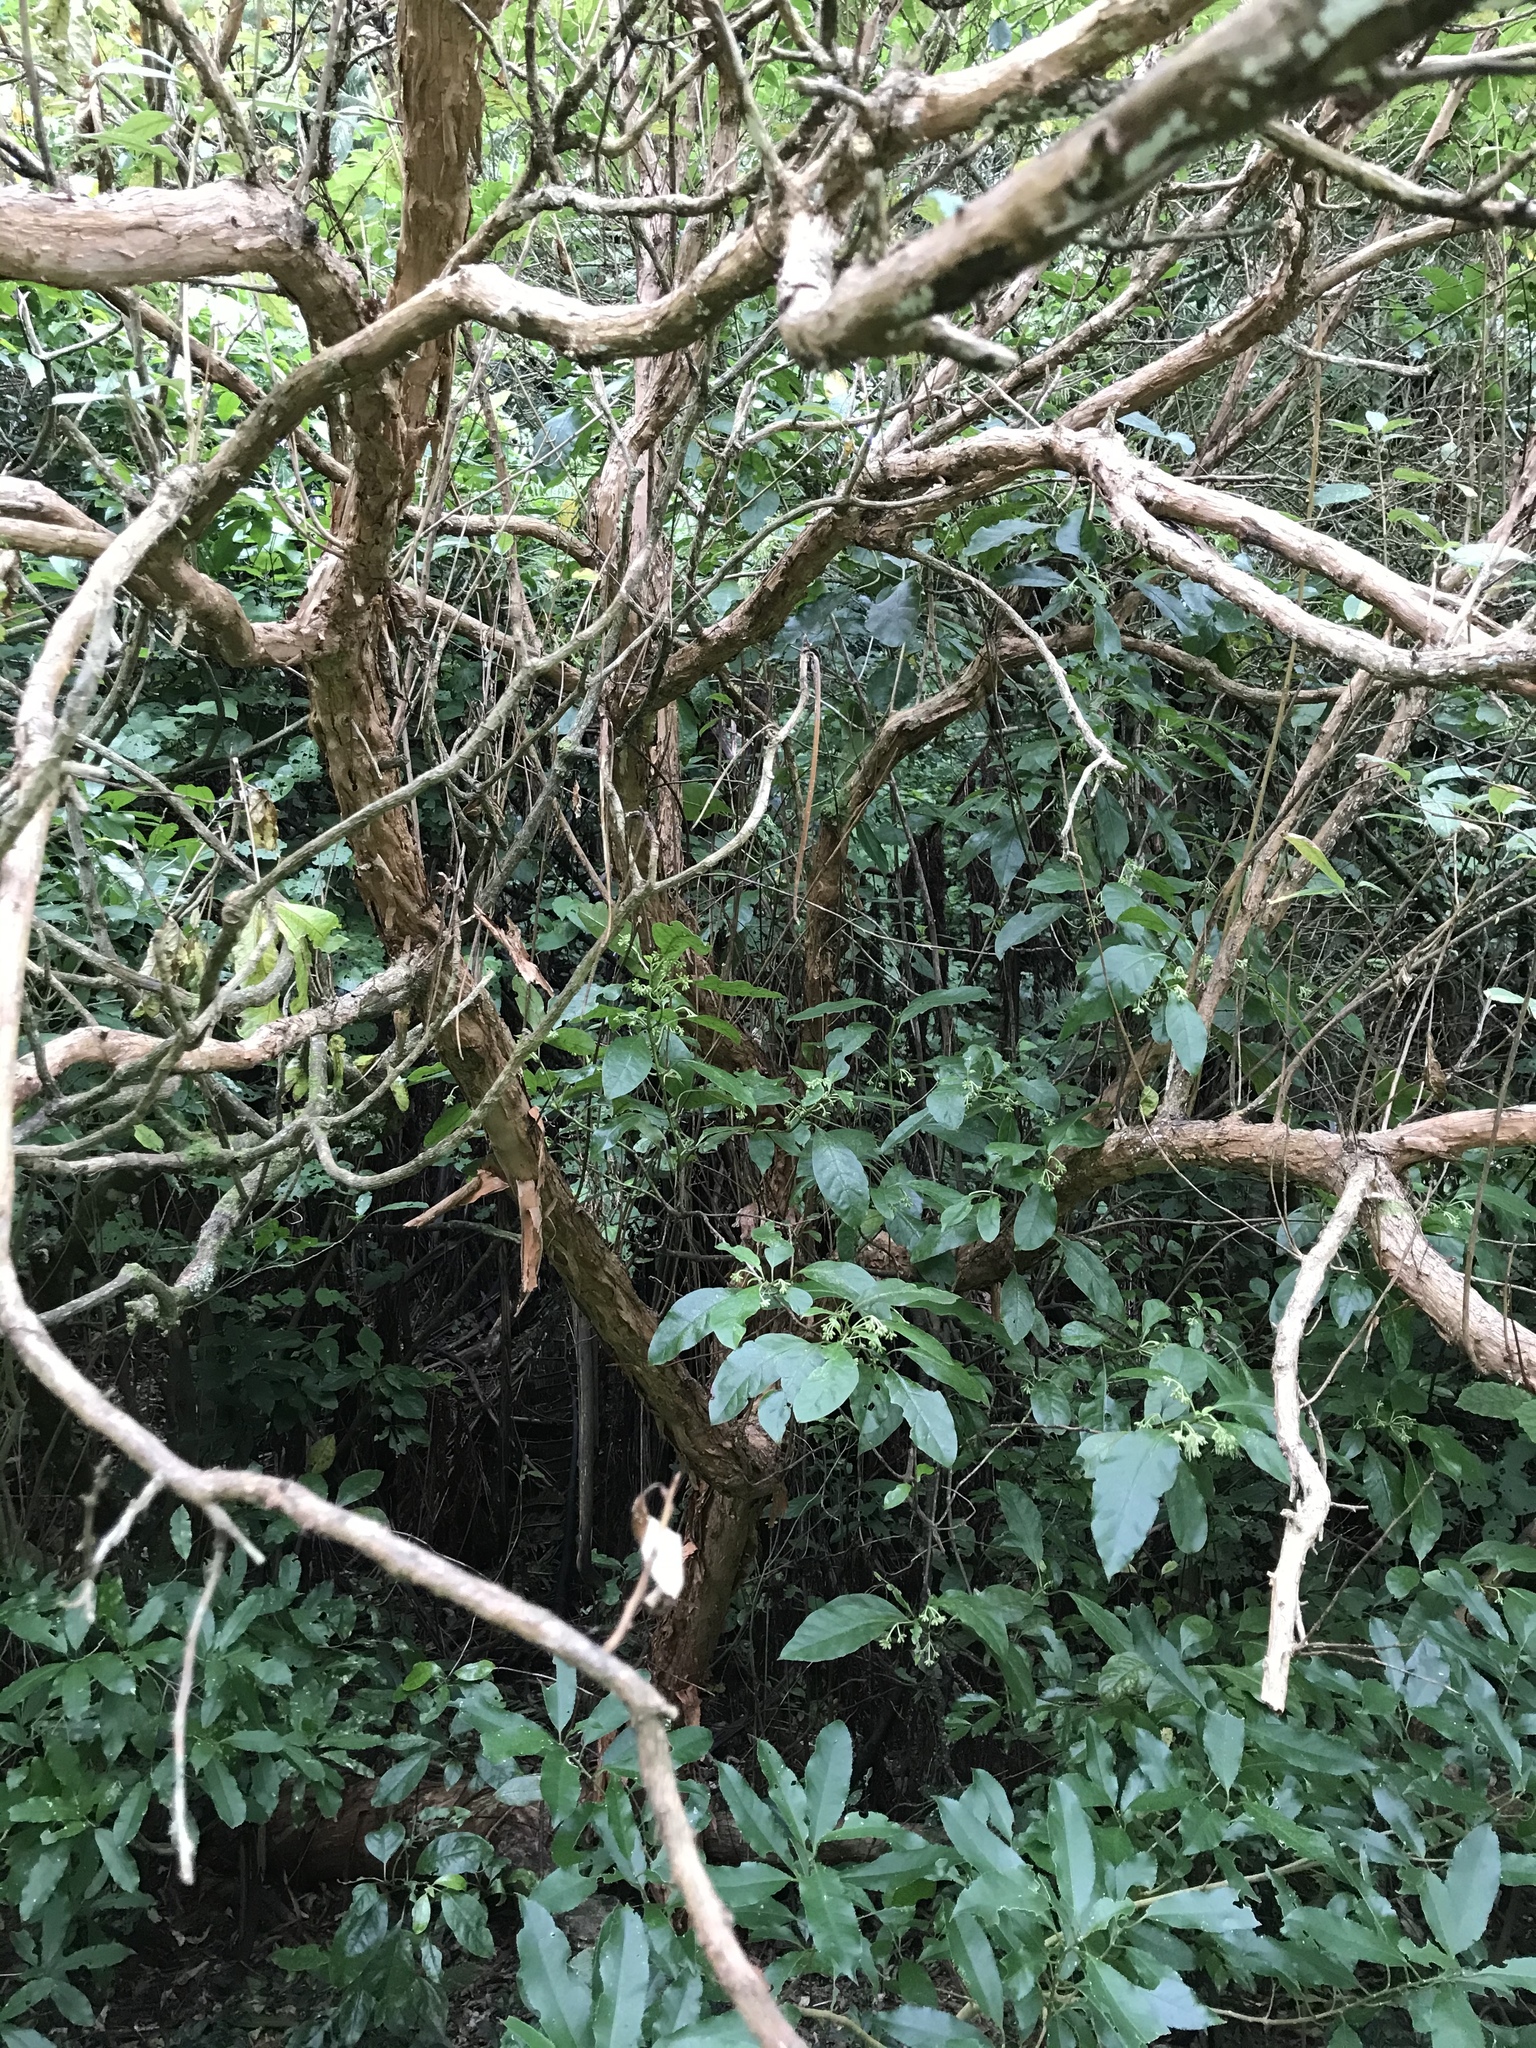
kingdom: Plantae
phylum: Tracheophyta
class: Magnoliopsida
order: Myrtales
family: Onagraceae
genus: Fuchsia
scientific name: Fuchsia excorticata
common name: Tree fuchsia
